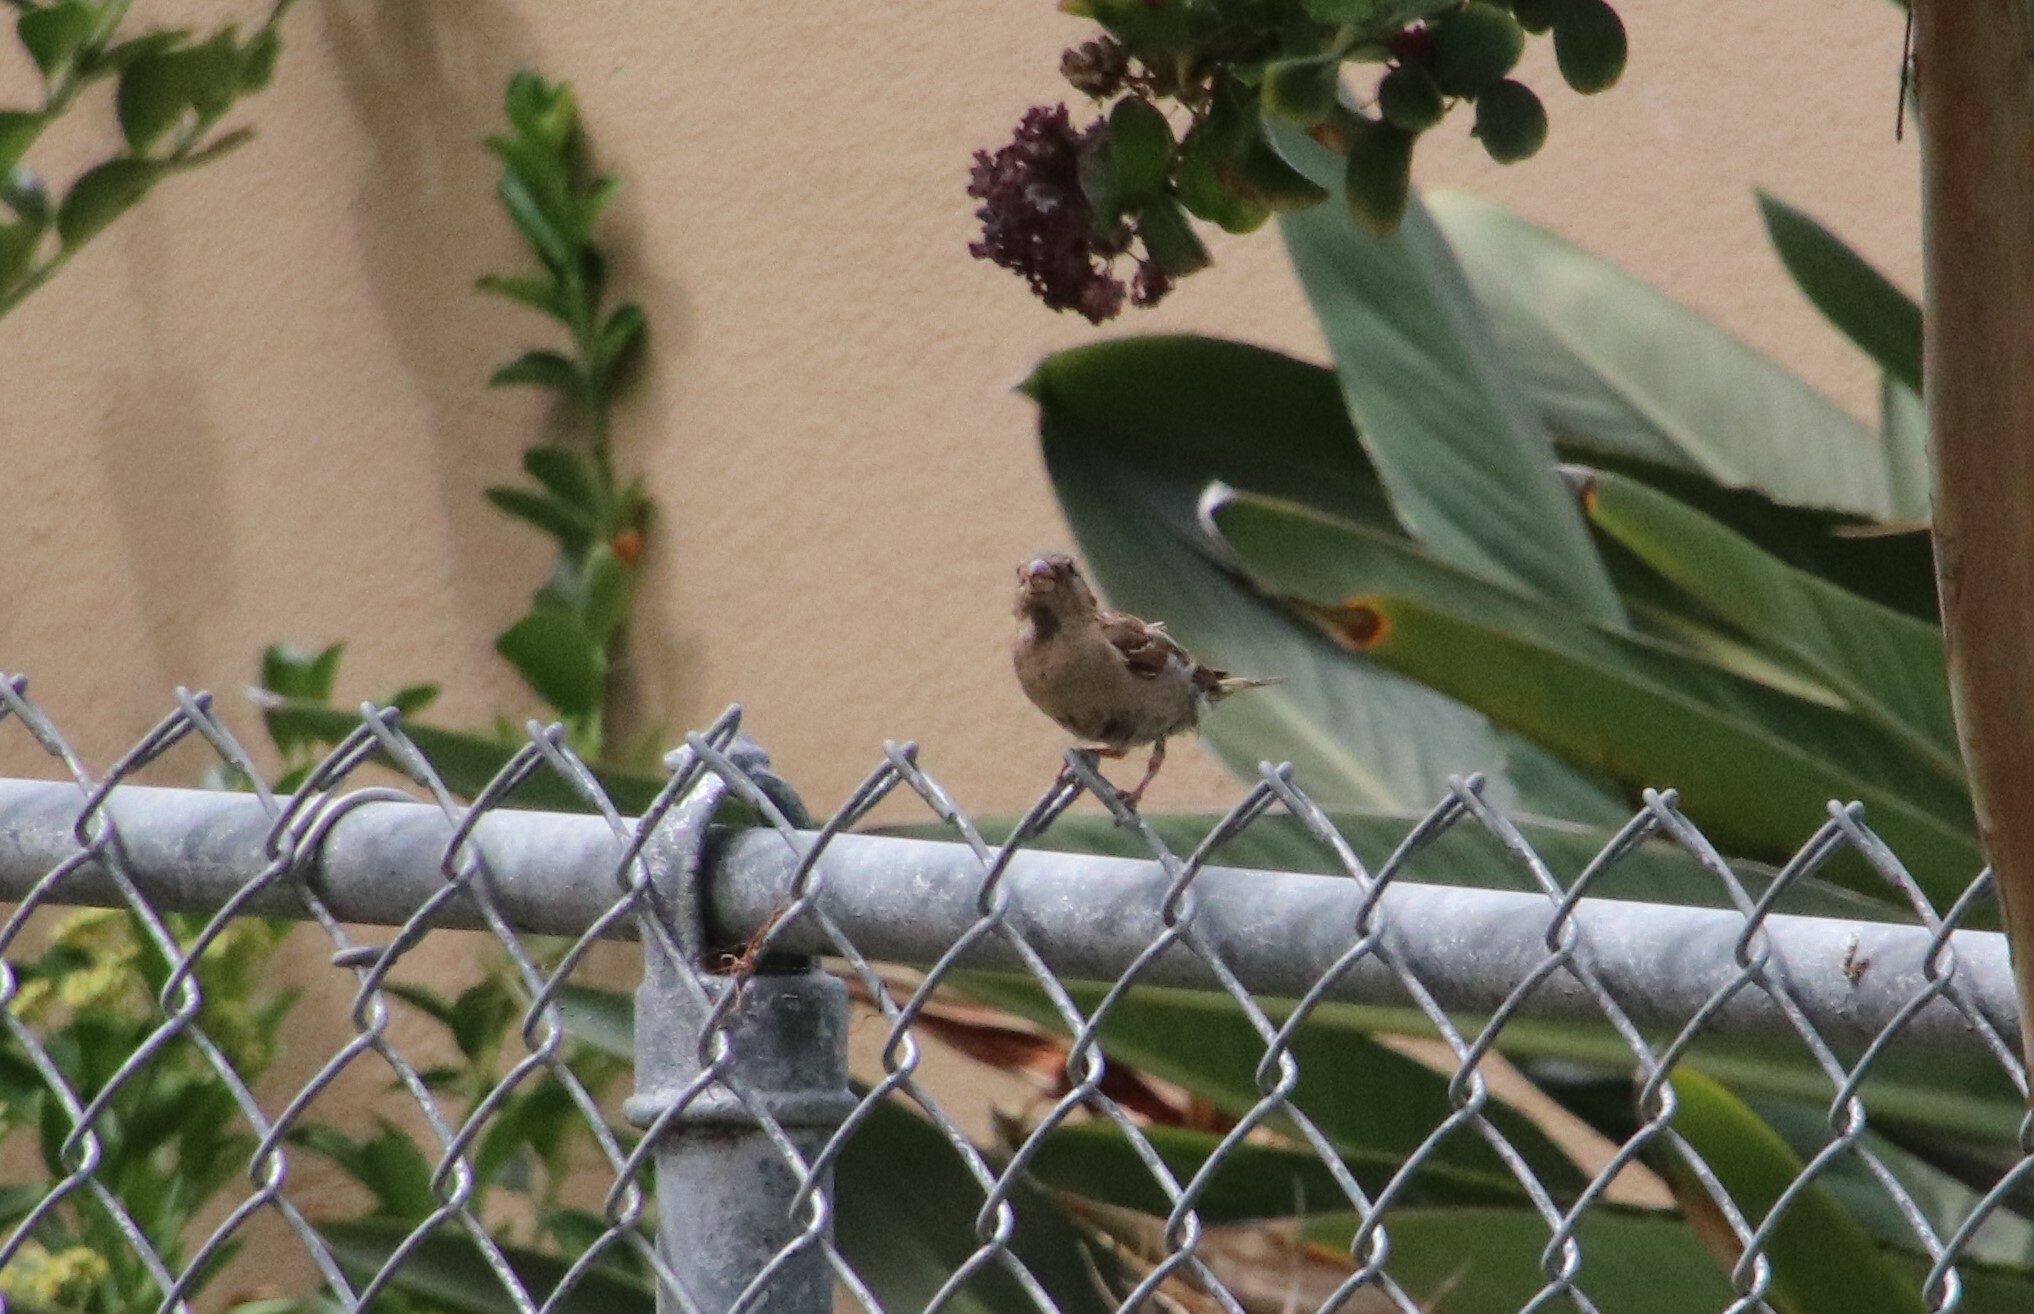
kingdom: Animalia
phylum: Chordata
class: Aves
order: Passeriformes
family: Passeridae
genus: Passer
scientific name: Passer domesticus
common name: House sparrow
